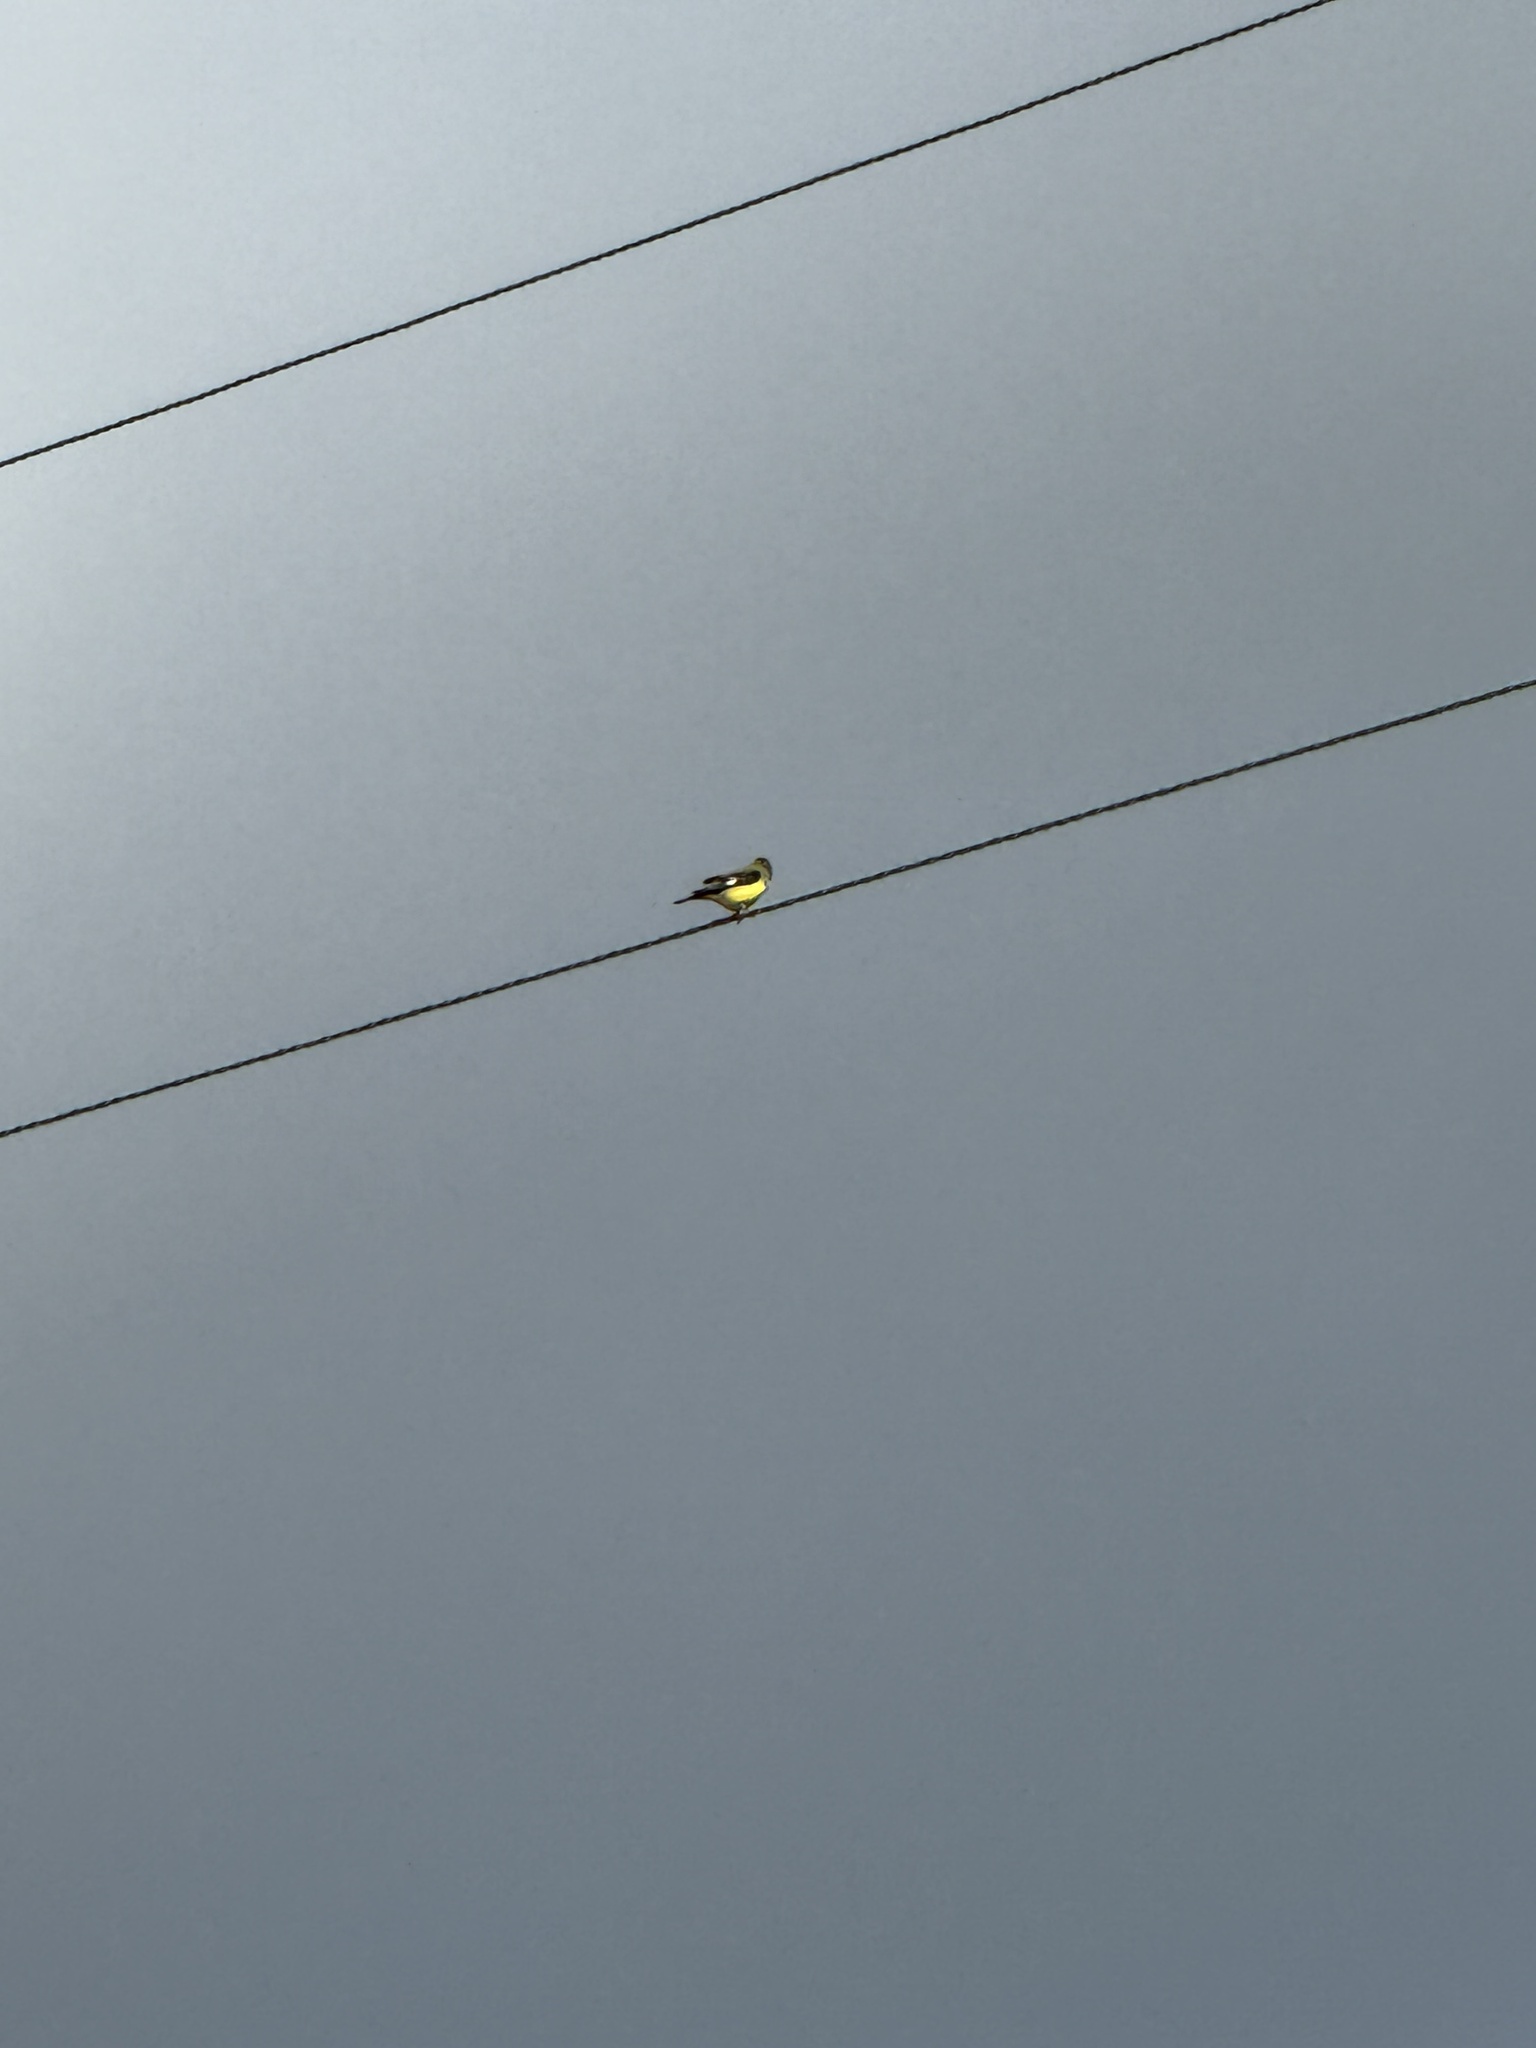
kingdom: Animalia
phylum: Chordata
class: Aves
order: Passeriformes
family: Fringillidae
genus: Spinus
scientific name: Spinus psaltria
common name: Lesser goldfinch
